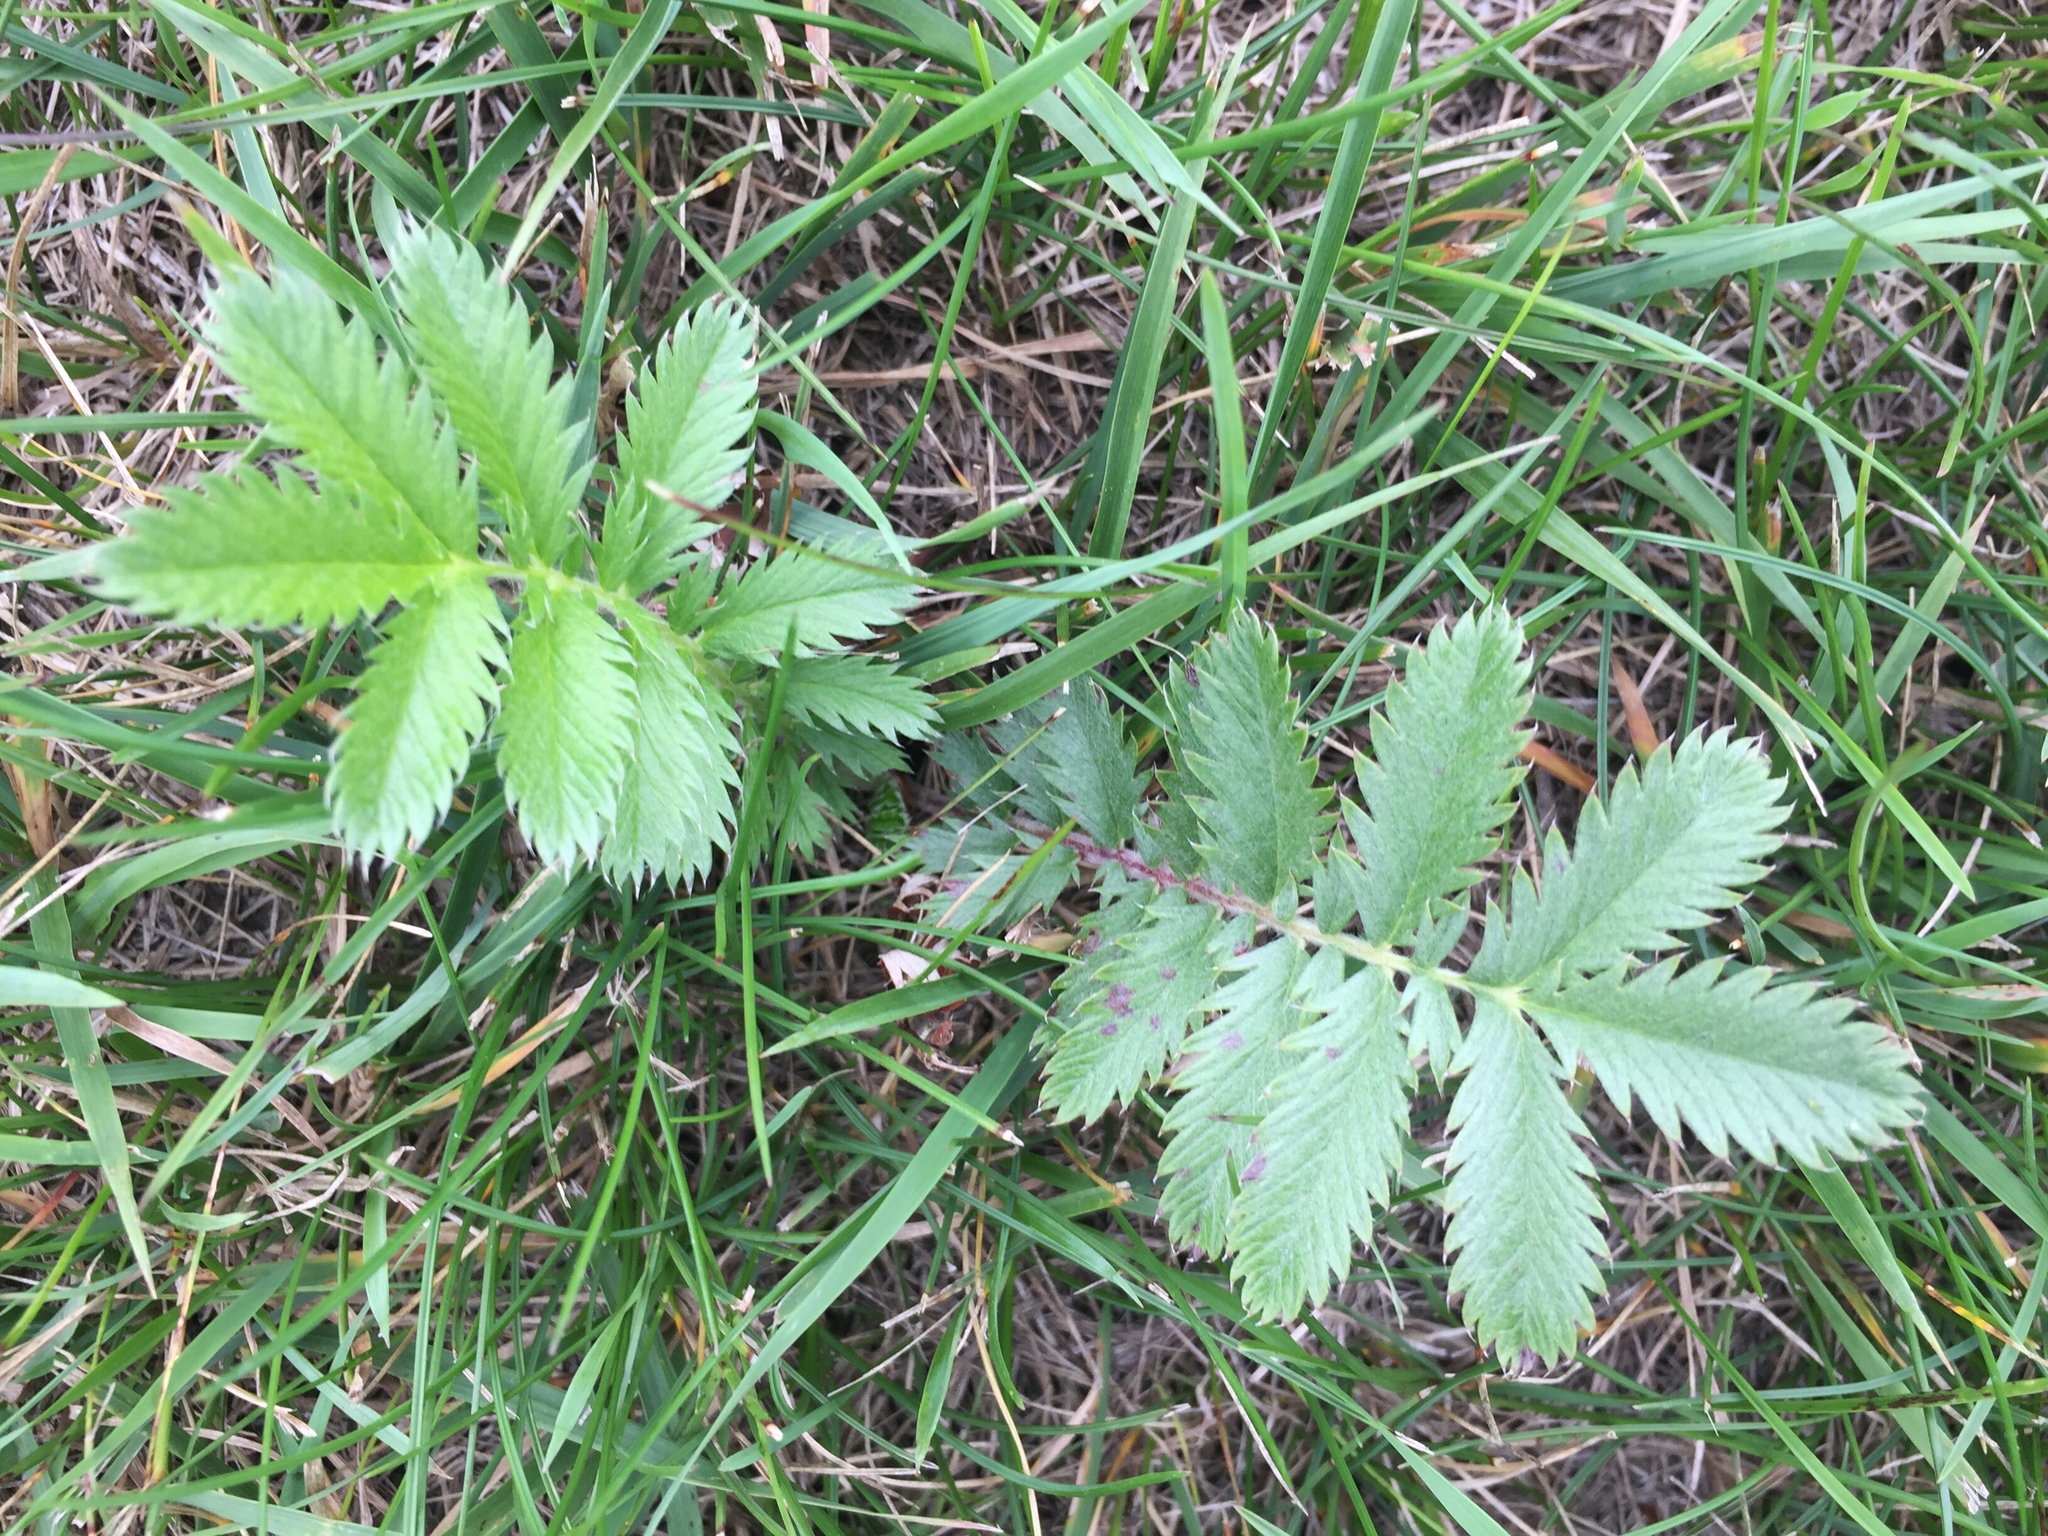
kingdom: Plantae
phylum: Tracheophyta
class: Magnoliopsida
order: Rosales
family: Rosaceae
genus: Argentina
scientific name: Argentina anserina
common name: Common silverweed
